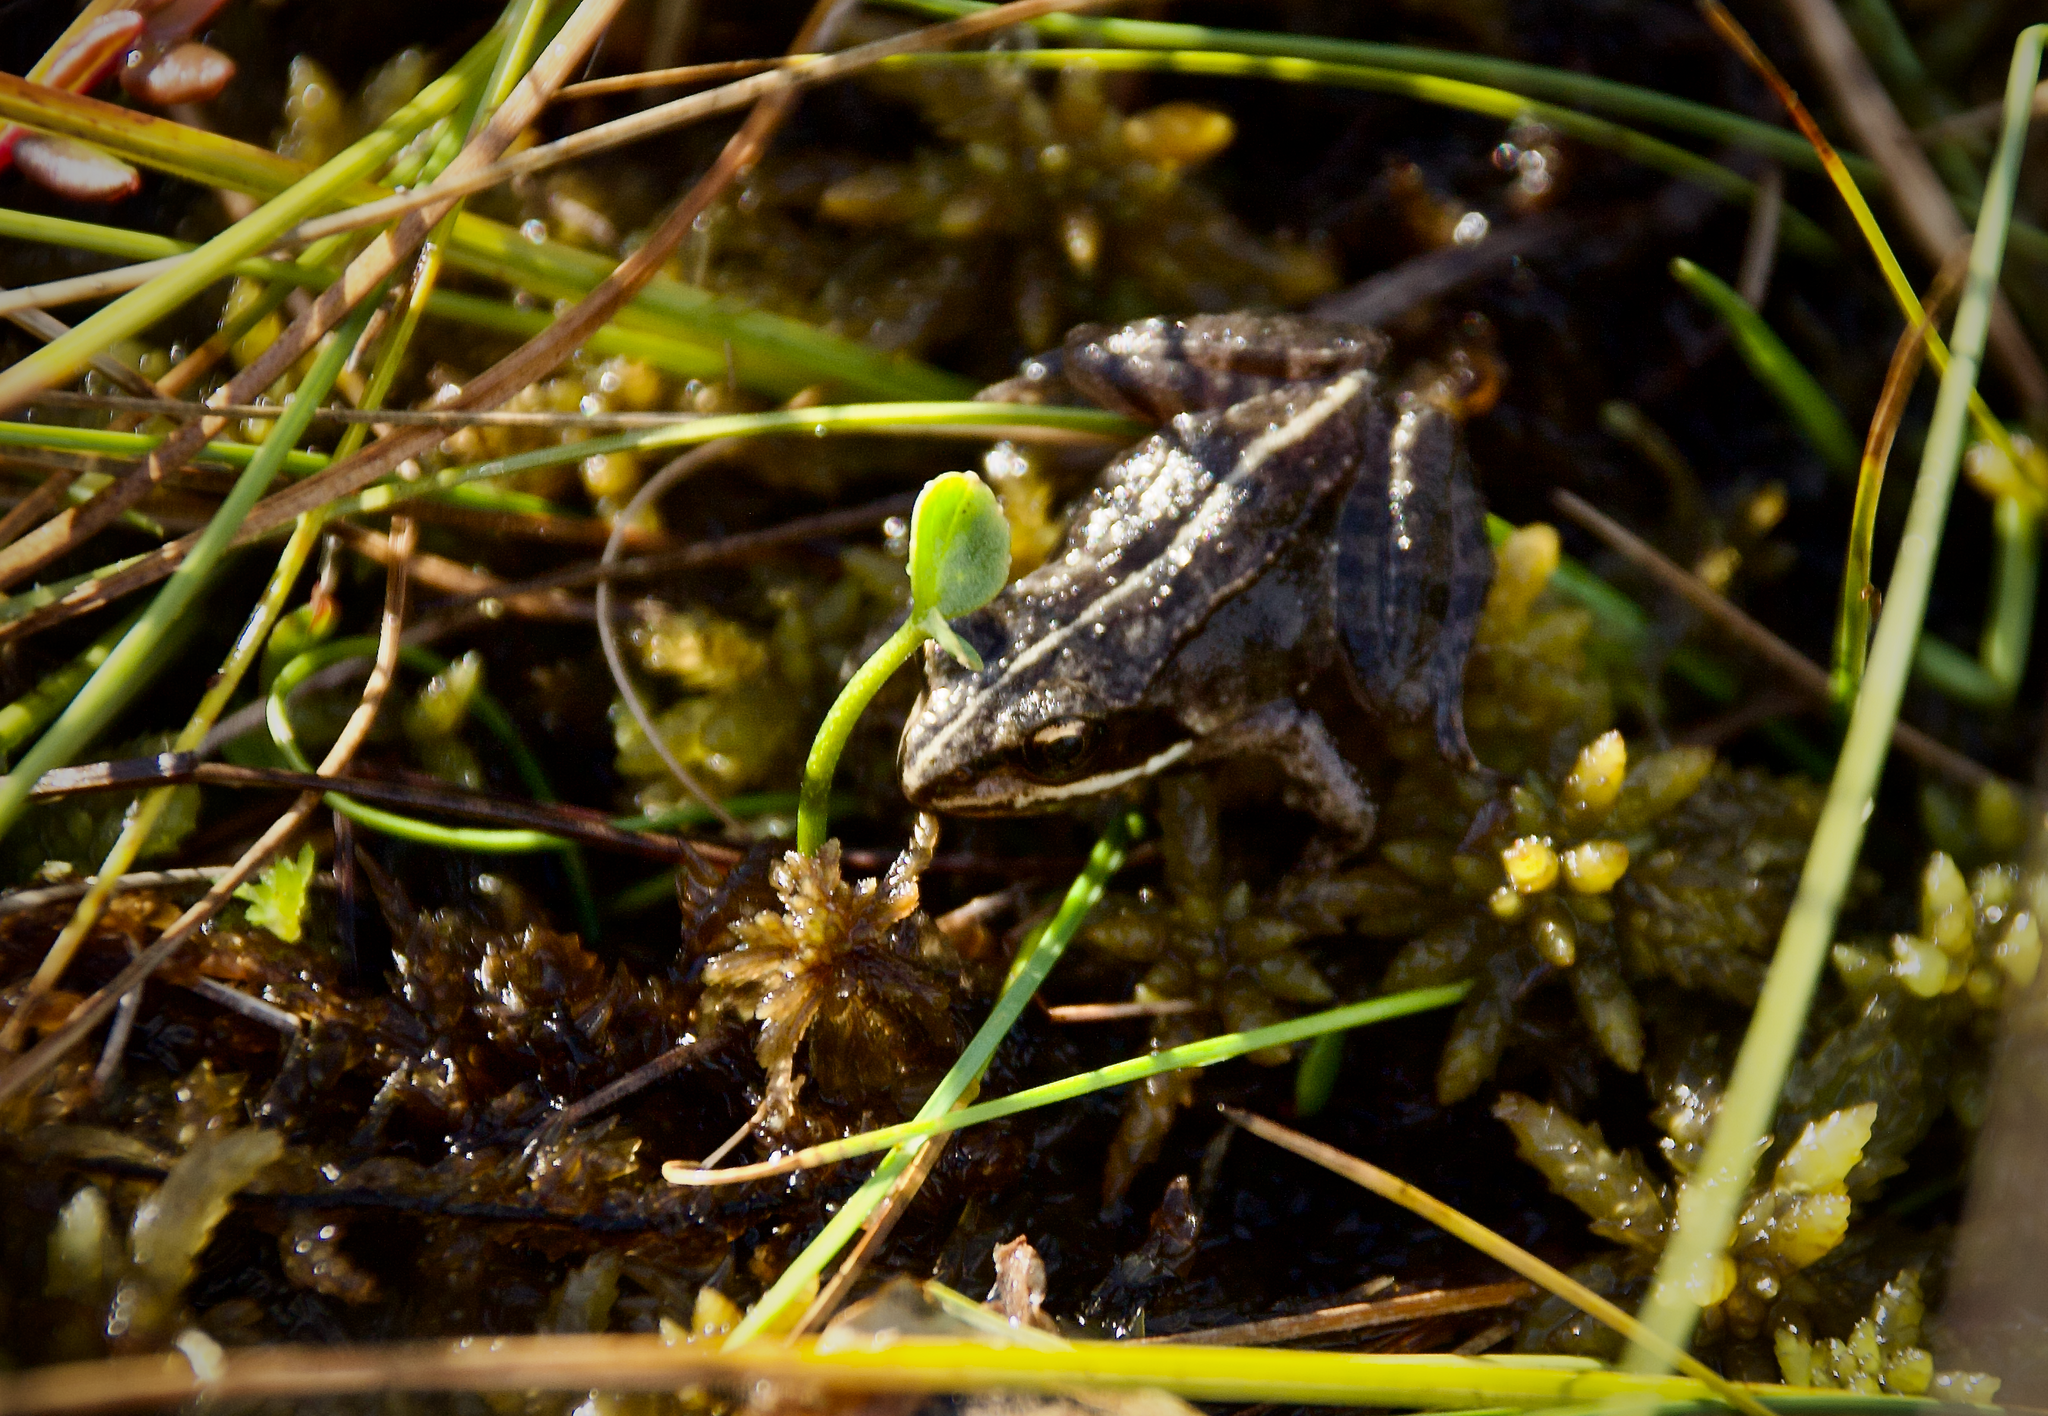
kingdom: Animalia
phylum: Chordata
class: Amphibia
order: Anura
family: Ranidae
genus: Lithobates
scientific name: Lithobates sylvaticus
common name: Wood frog
